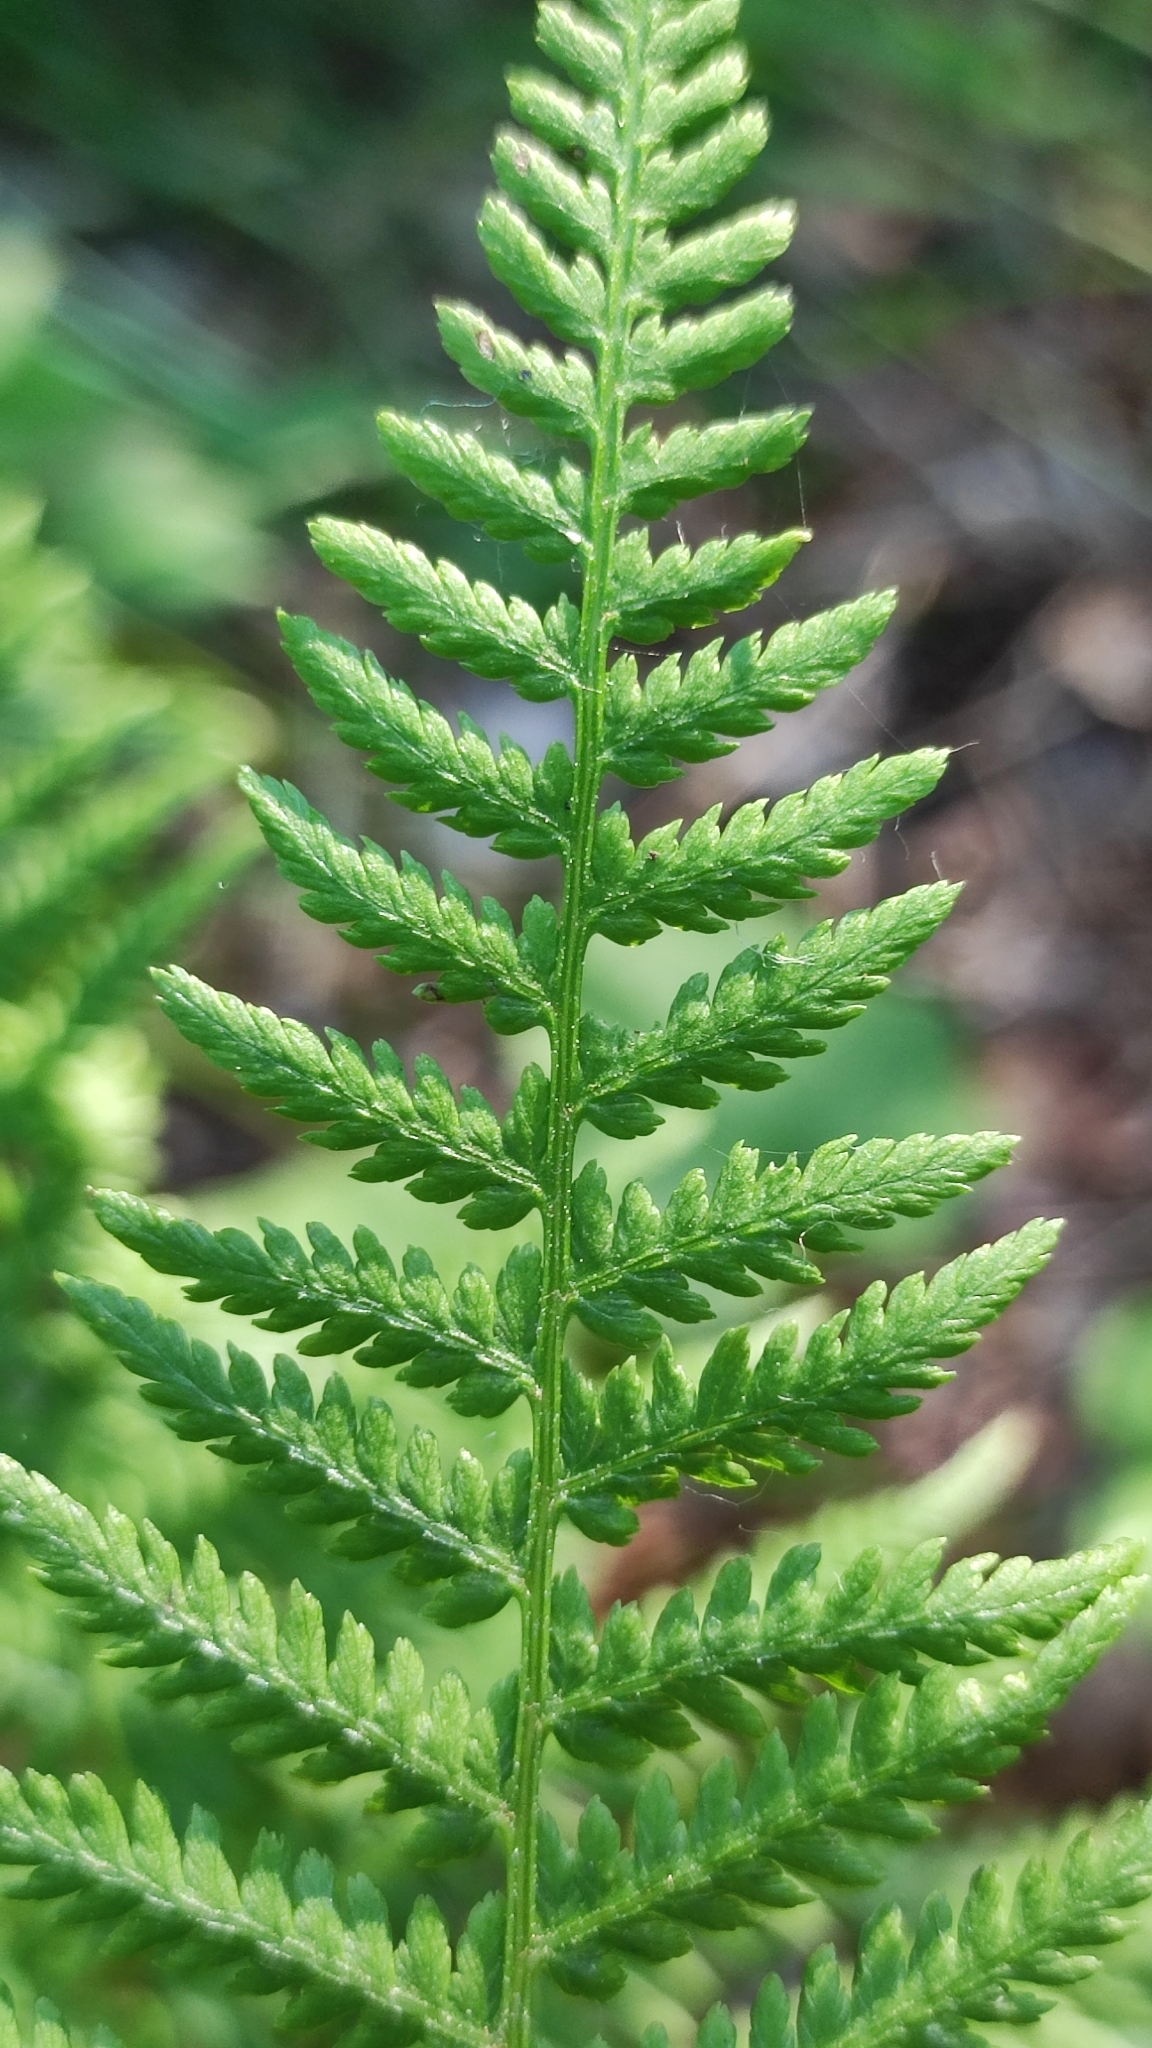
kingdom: Plantae
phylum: Tracheophyta
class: Polypodiopsida
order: Polypodiales
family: Athyriaceae
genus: Athyrium
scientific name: Athyrium filix-femina
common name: Lady fern
